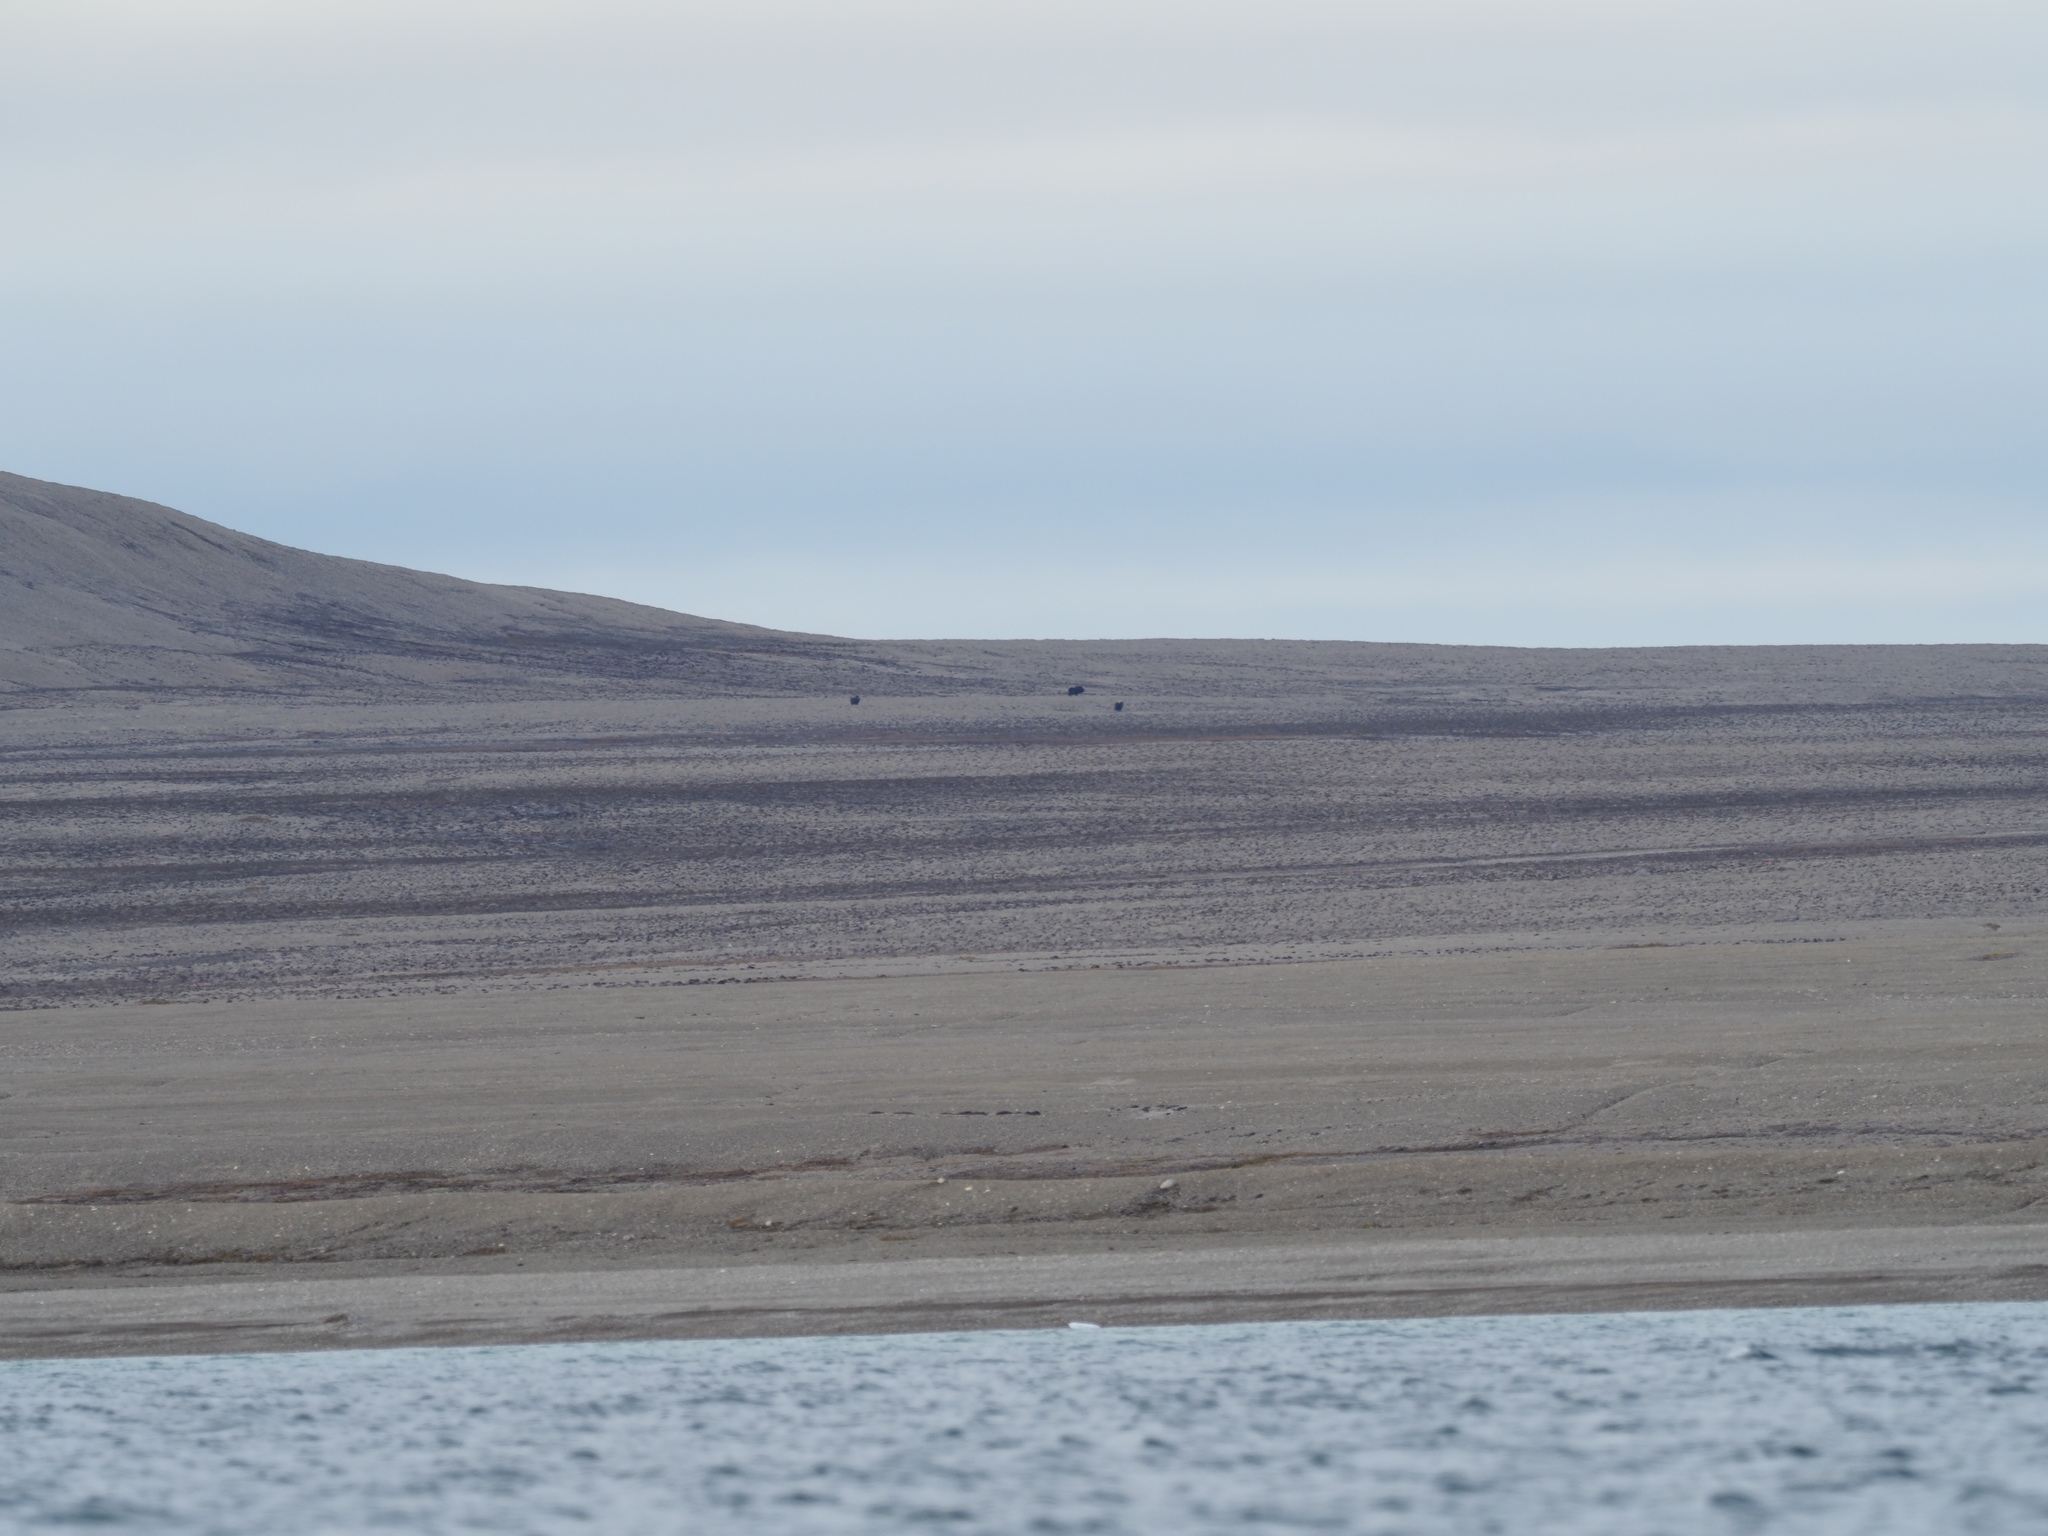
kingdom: Animalia
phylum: Chordata
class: Mammalia
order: Artiodactyla
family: Bovidae
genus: Ovibos
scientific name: Ovibos moschatus
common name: Muskox
